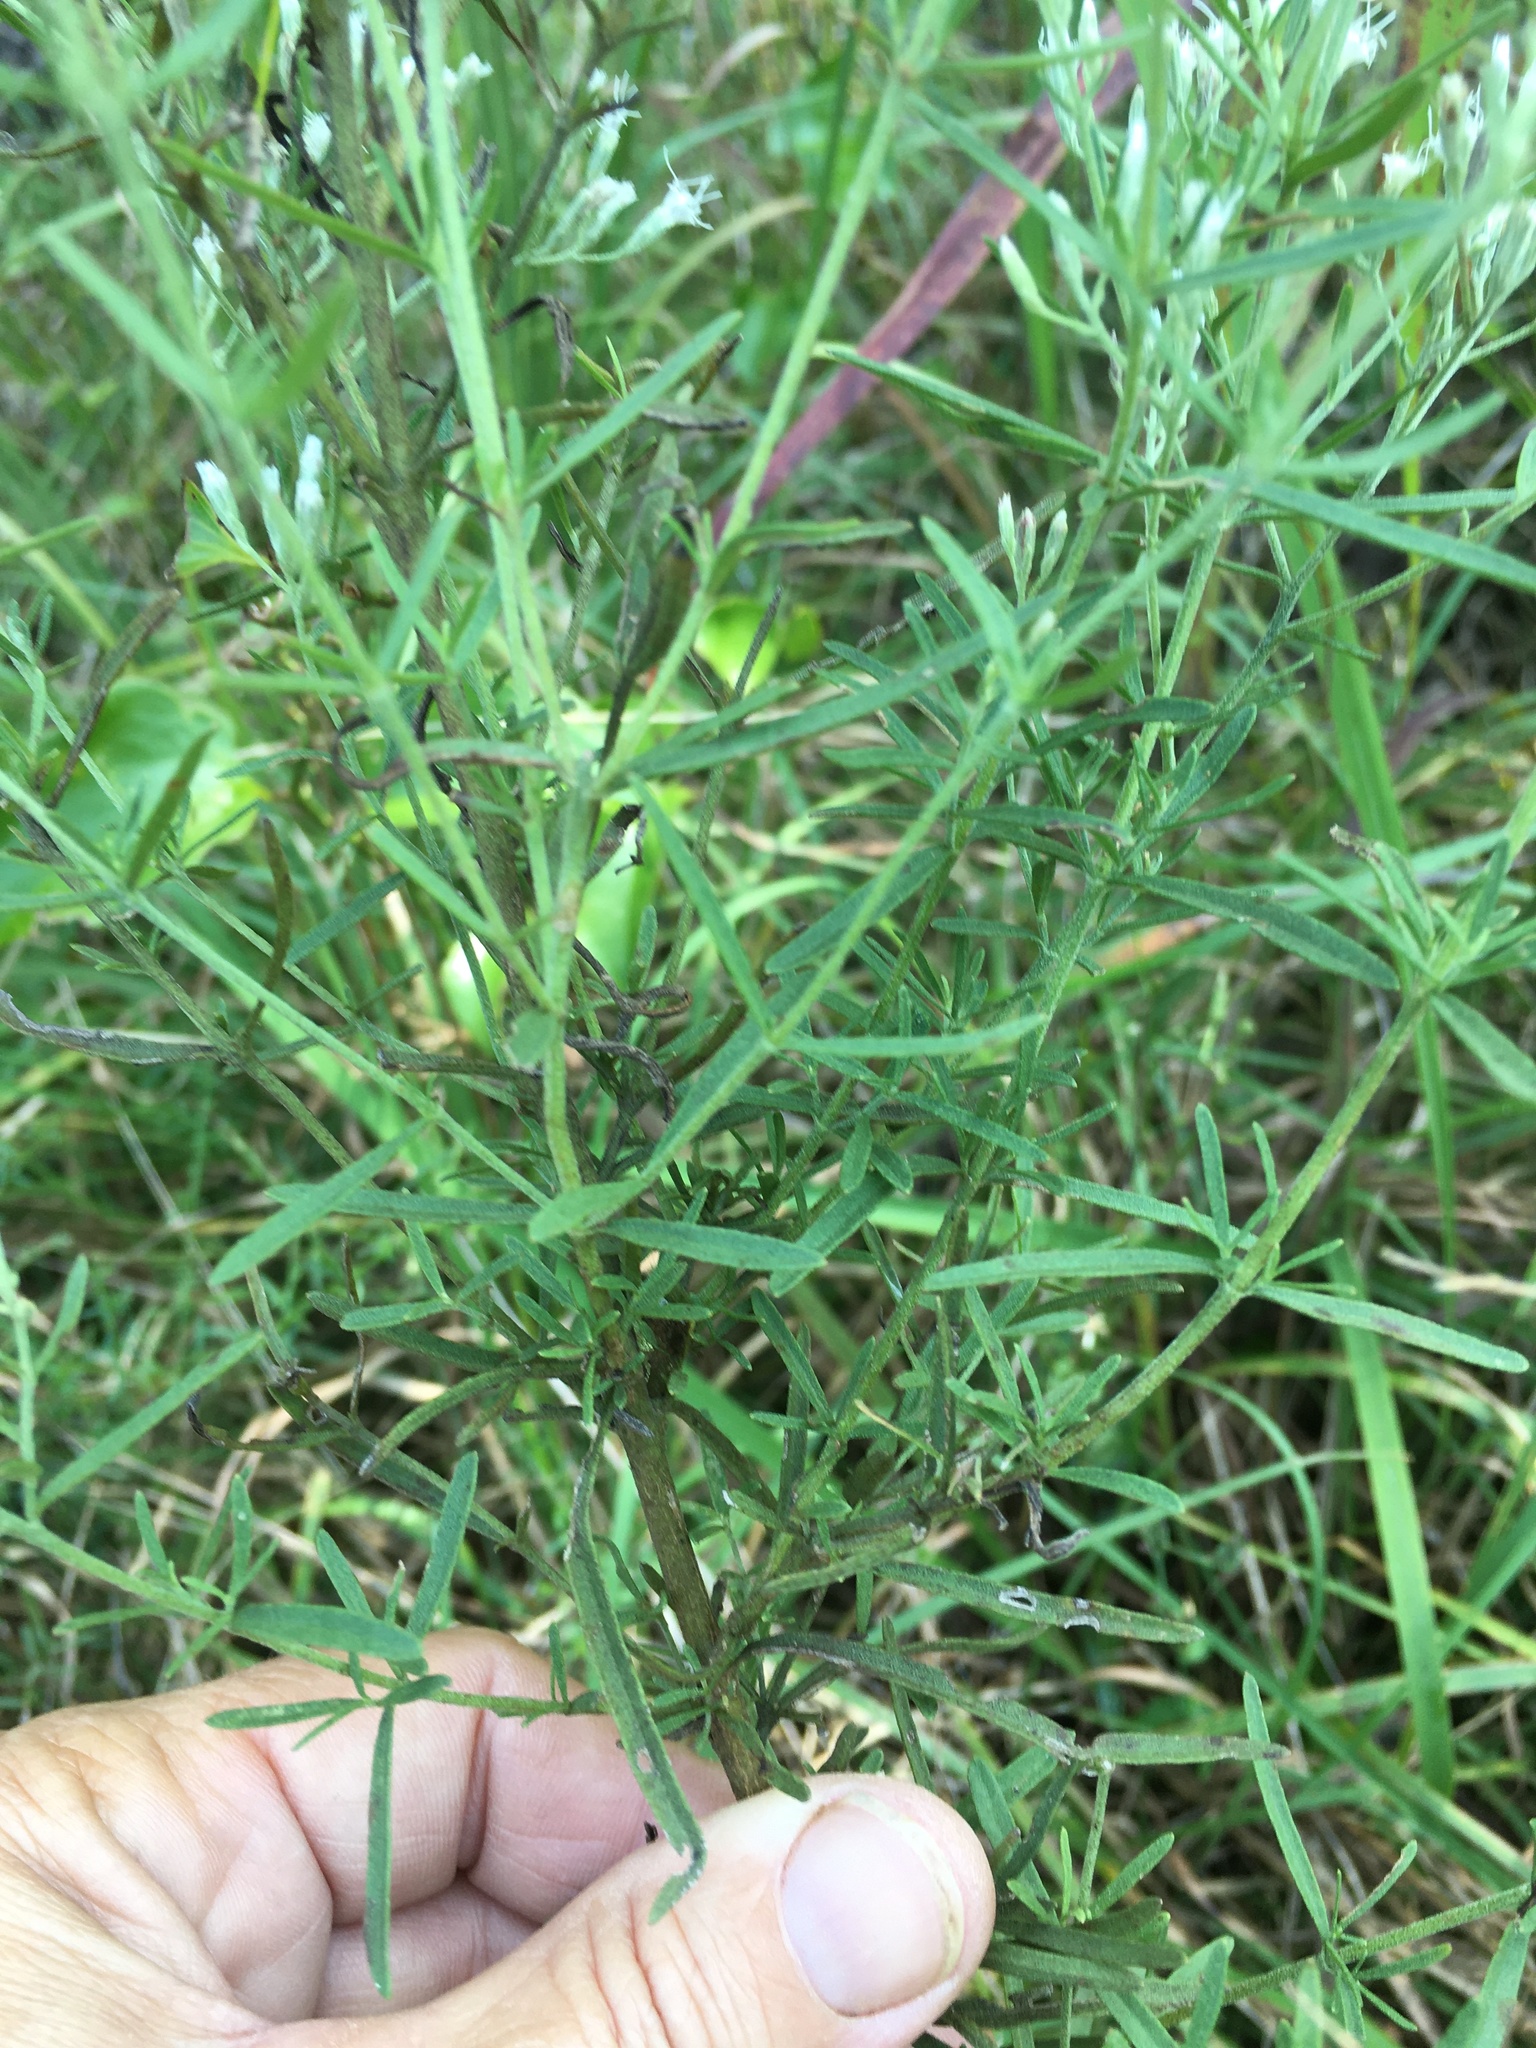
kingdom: Plantae
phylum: Tracheophyta
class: Magnoliopsida
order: Asterales
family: Asteraceae
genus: Eupatorium
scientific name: Eupatorium hyssopifolium
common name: Hyssop-leaf thoroughwort
